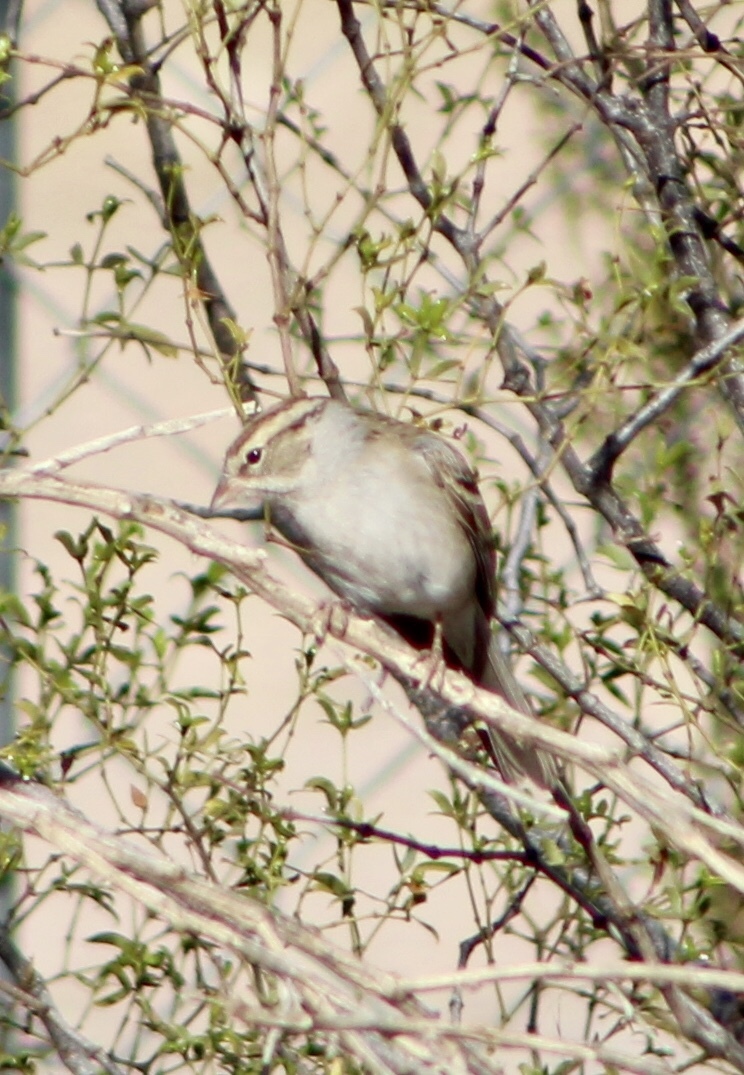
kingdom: Animalia
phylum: Chordata
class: Aves
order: Passeriformes
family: Passerellidae
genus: Spizella
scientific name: Spizella passerina
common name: Chipping sparrow
